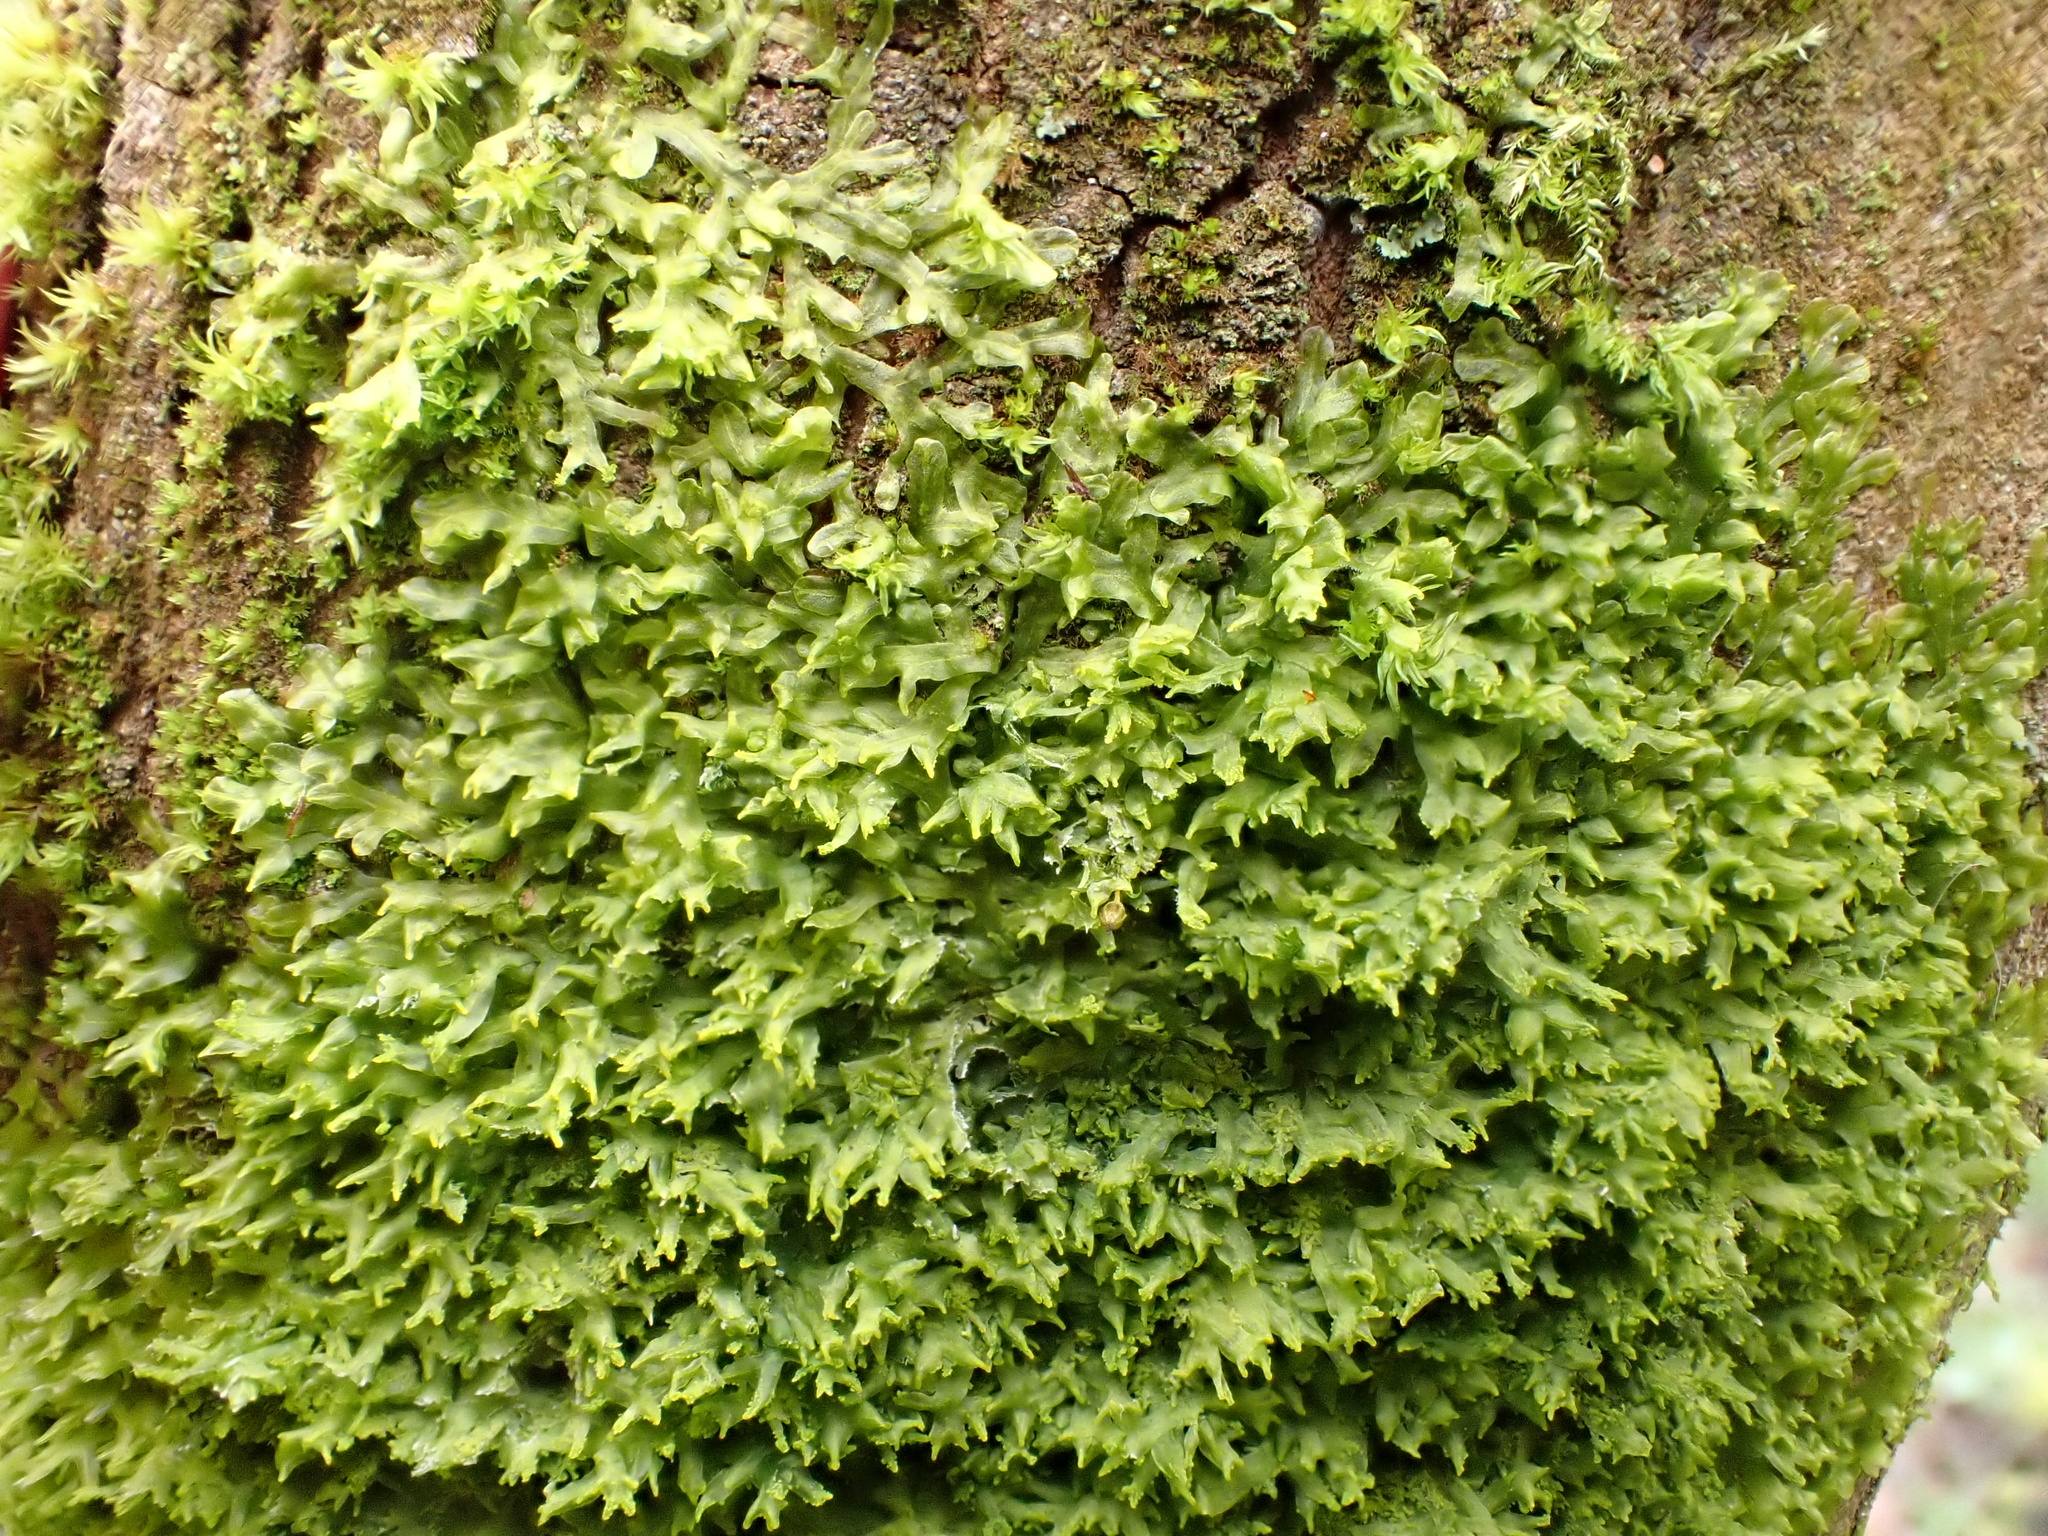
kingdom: Plantae
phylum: Marchantiophyta
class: Jungermanniopsida
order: Metzgeriales
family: Metzgeriaceae
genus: Metzgeria
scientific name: Metzgeria violacea
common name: Blueish veilwort
